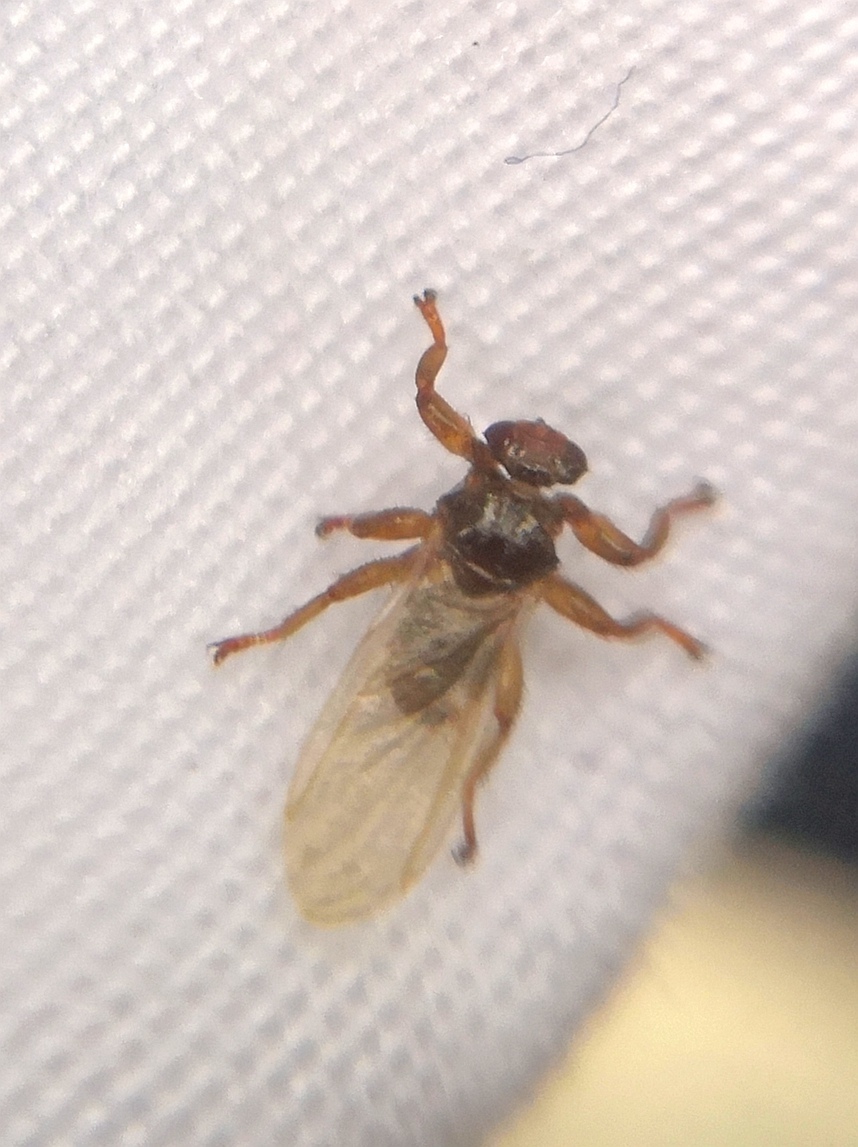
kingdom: Animalia
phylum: Arthropoda
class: Insecta
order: Diptera
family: Hippoboscidae
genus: Lipoptena
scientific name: Lipoptena cervi
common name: Deer ked
